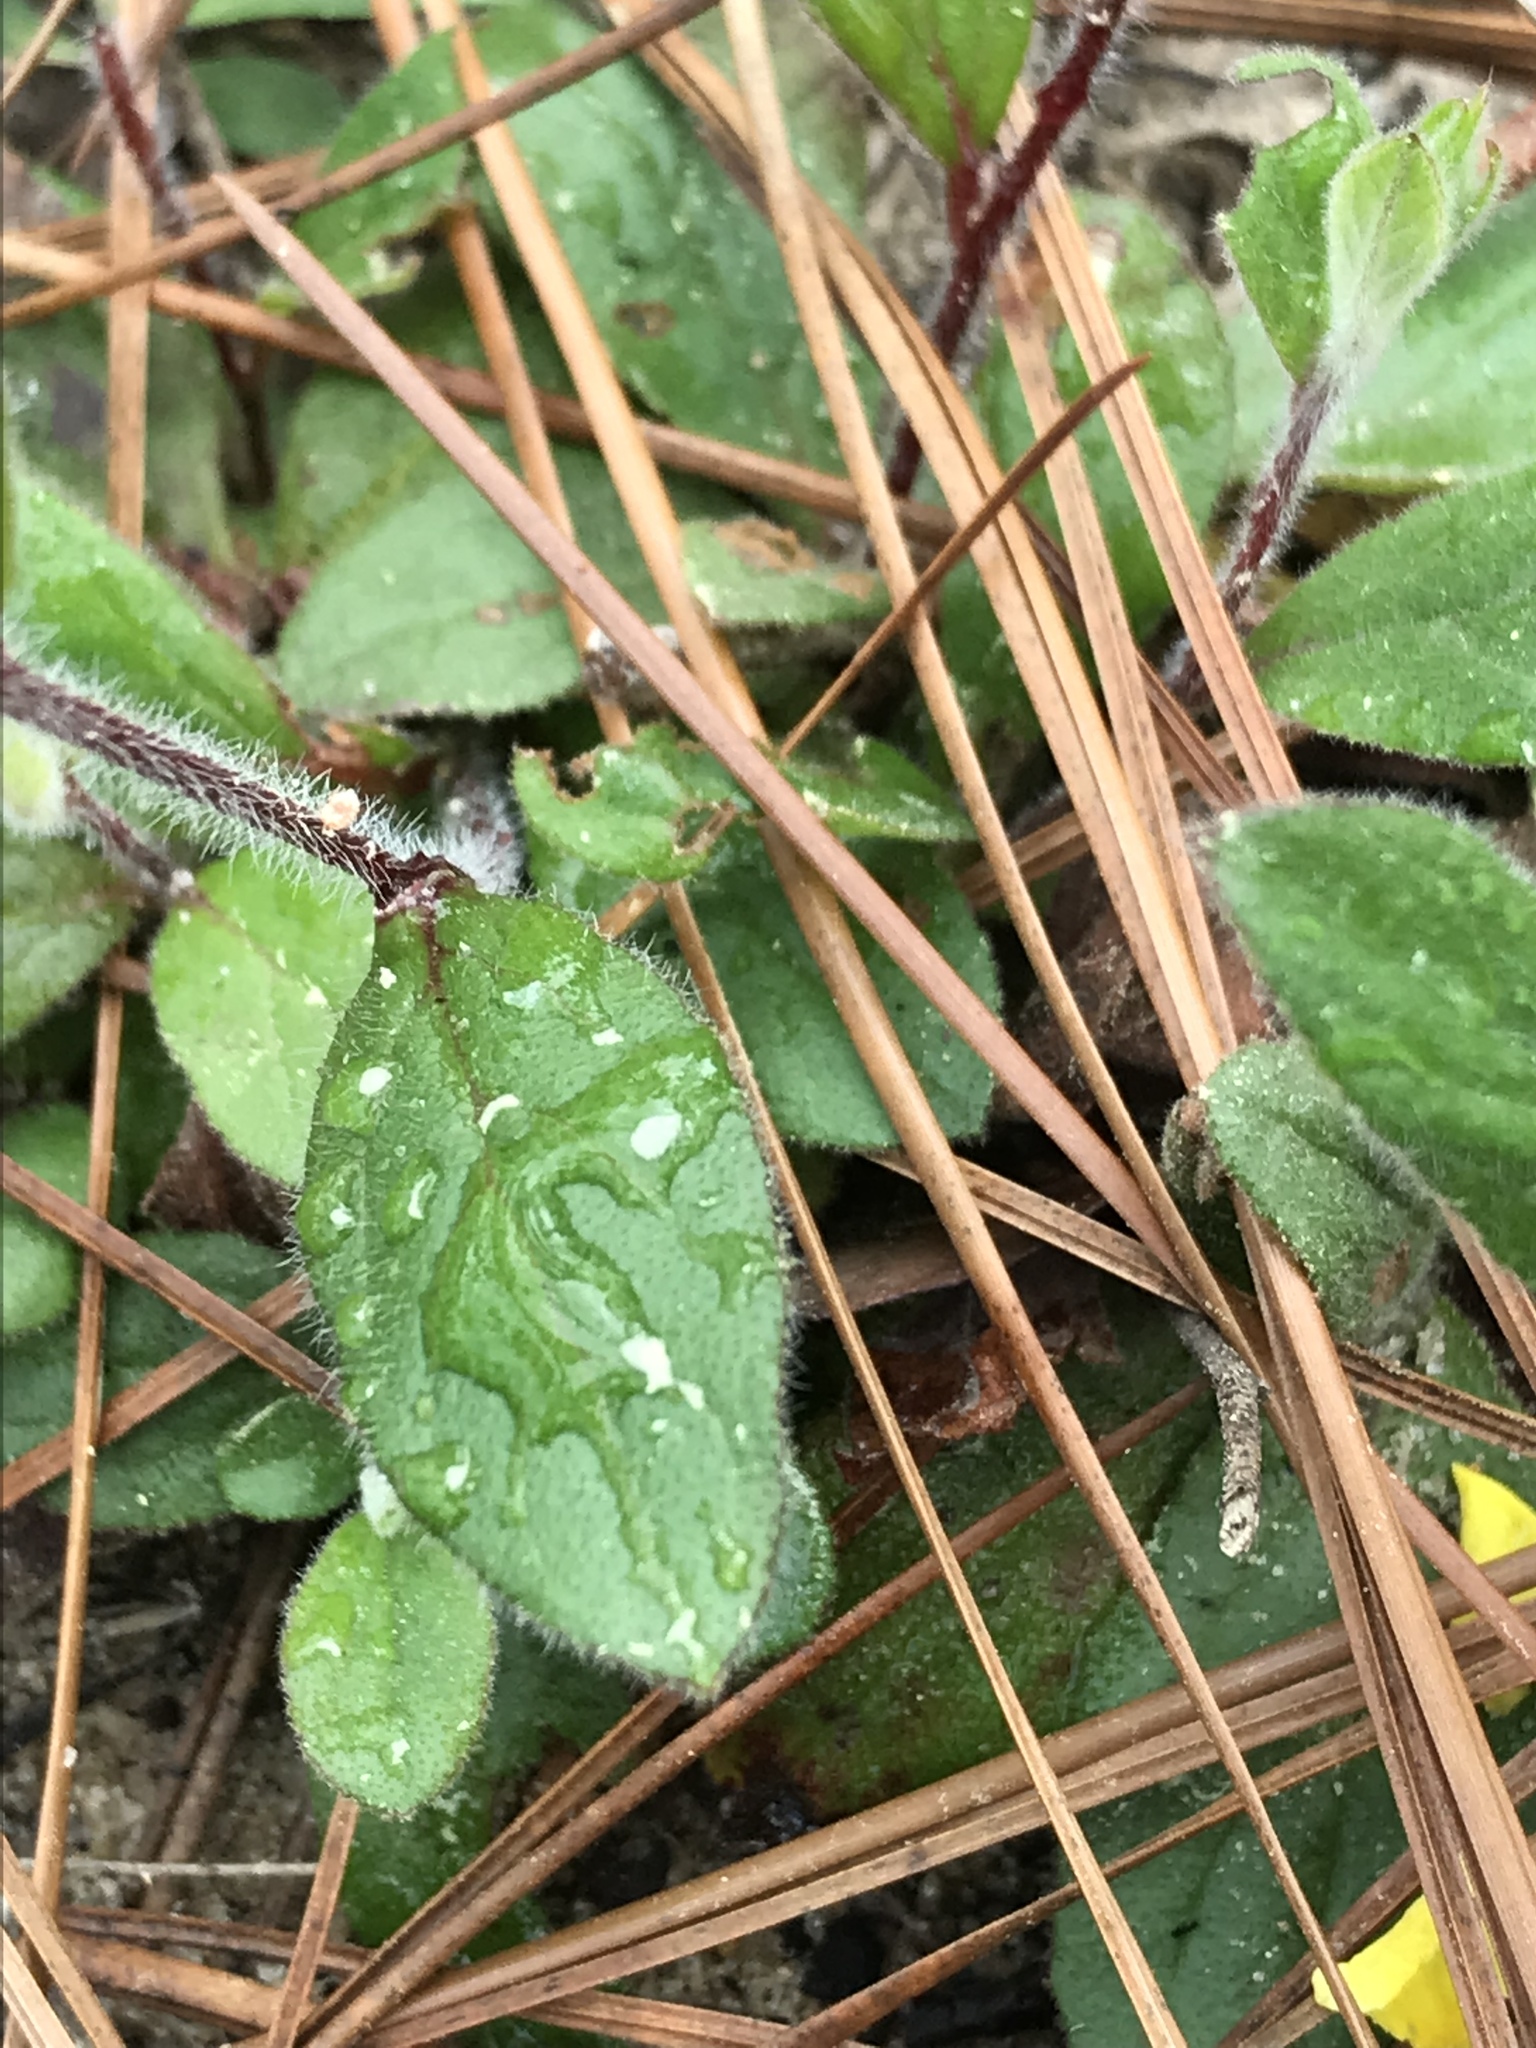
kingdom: Plantae
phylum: Tracheophyta
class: Magnoliopsida
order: Malvales
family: Cistaceae
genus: Crocanthemum
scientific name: Crocanthemum carolinianum
